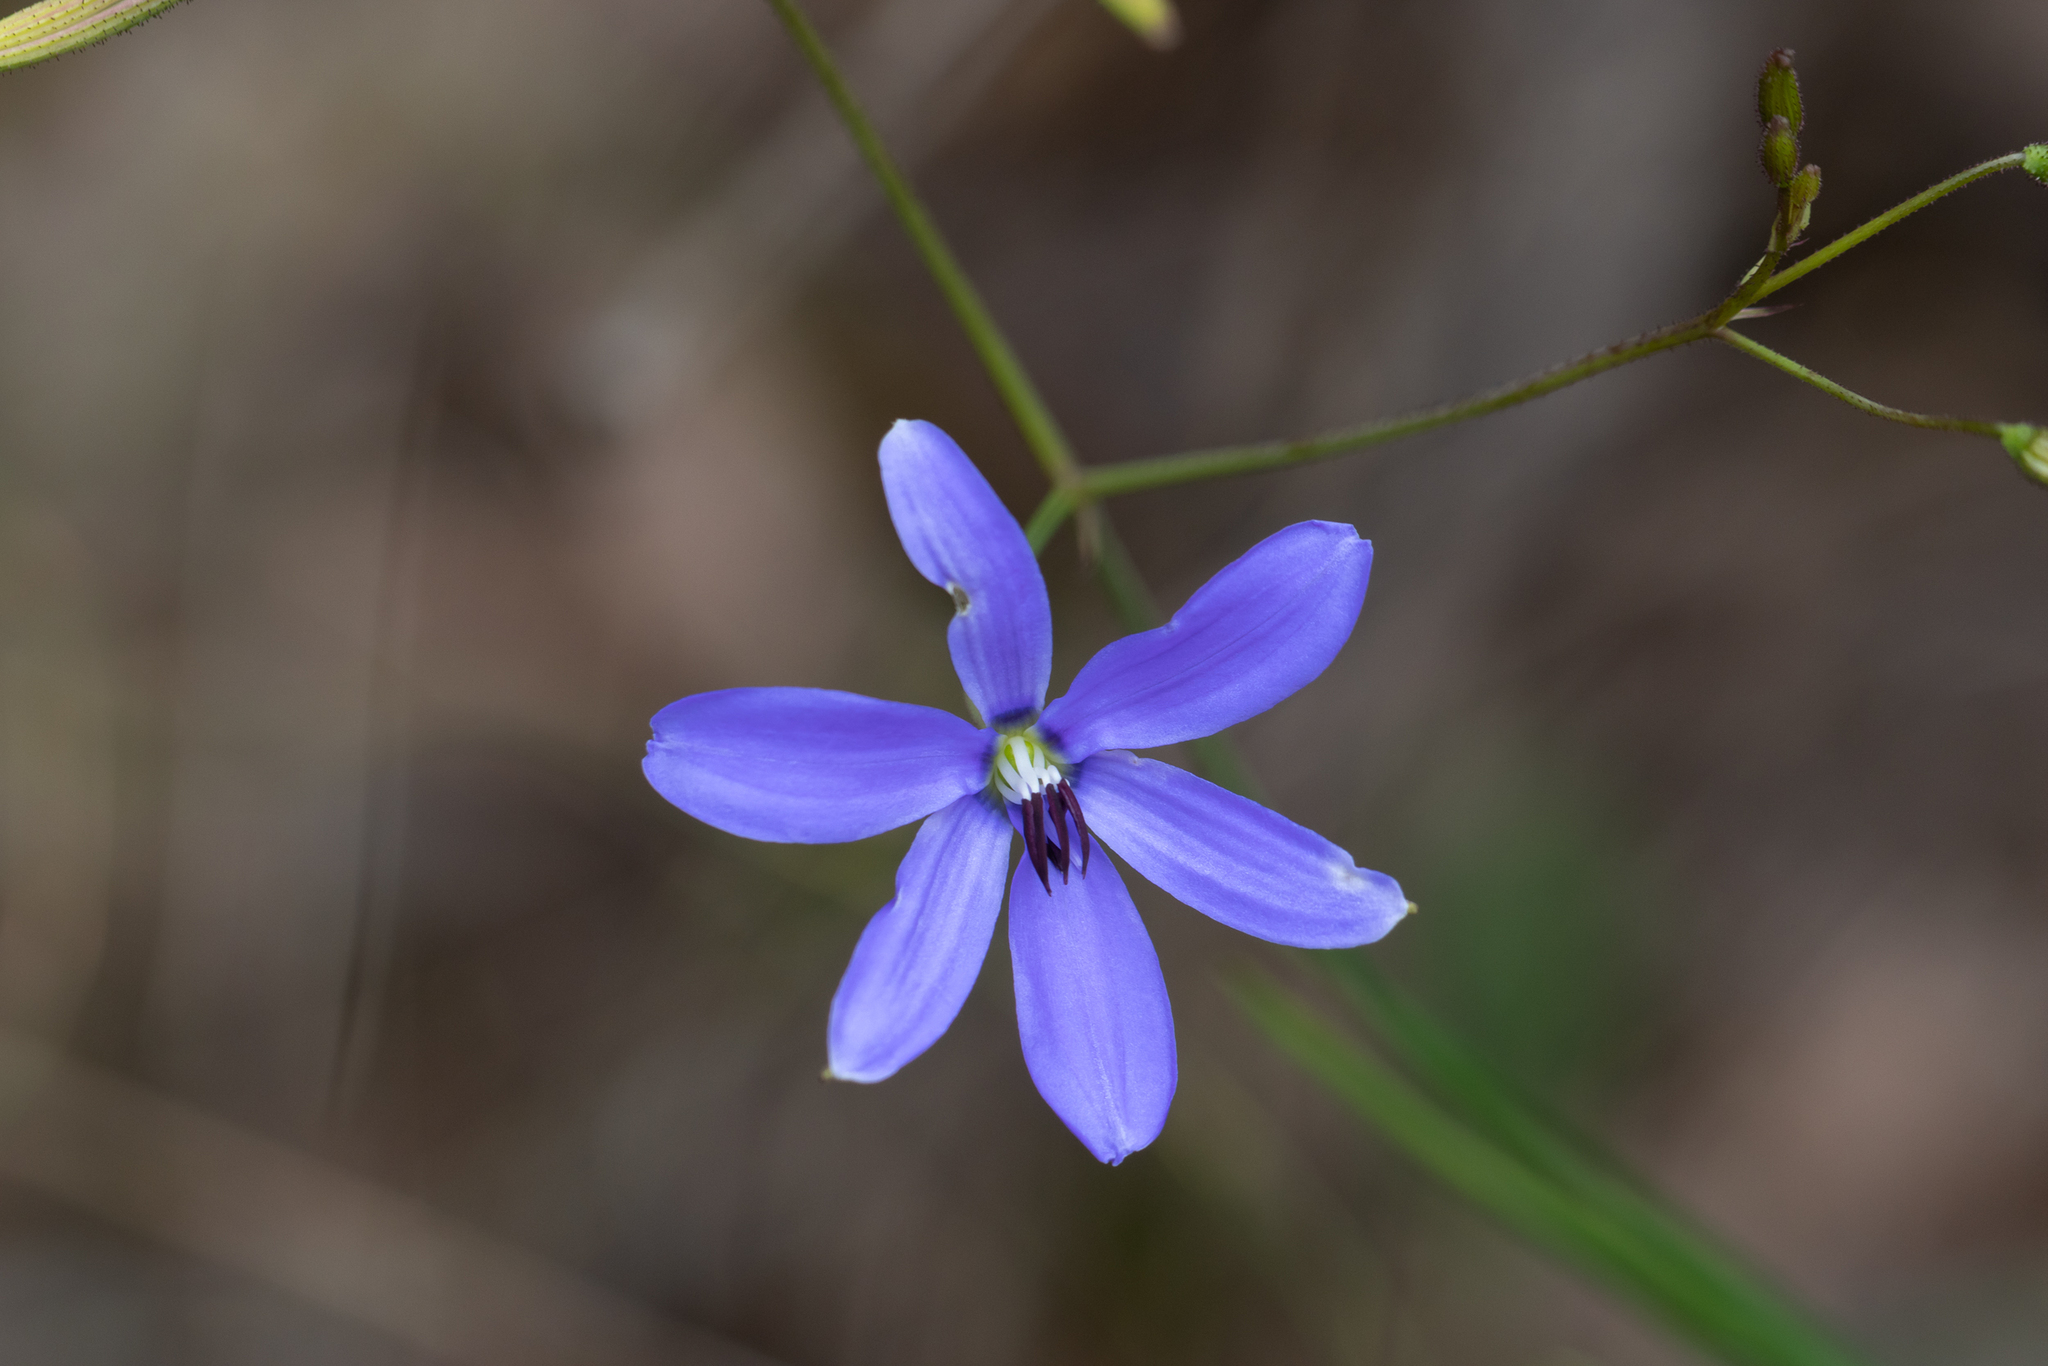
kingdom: Plantae
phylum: Tracheophyta
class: Liliopsida
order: Asparagales
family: Asphodelaceae
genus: Agrostocrinum
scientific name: Agrostocrinum hirsutum
